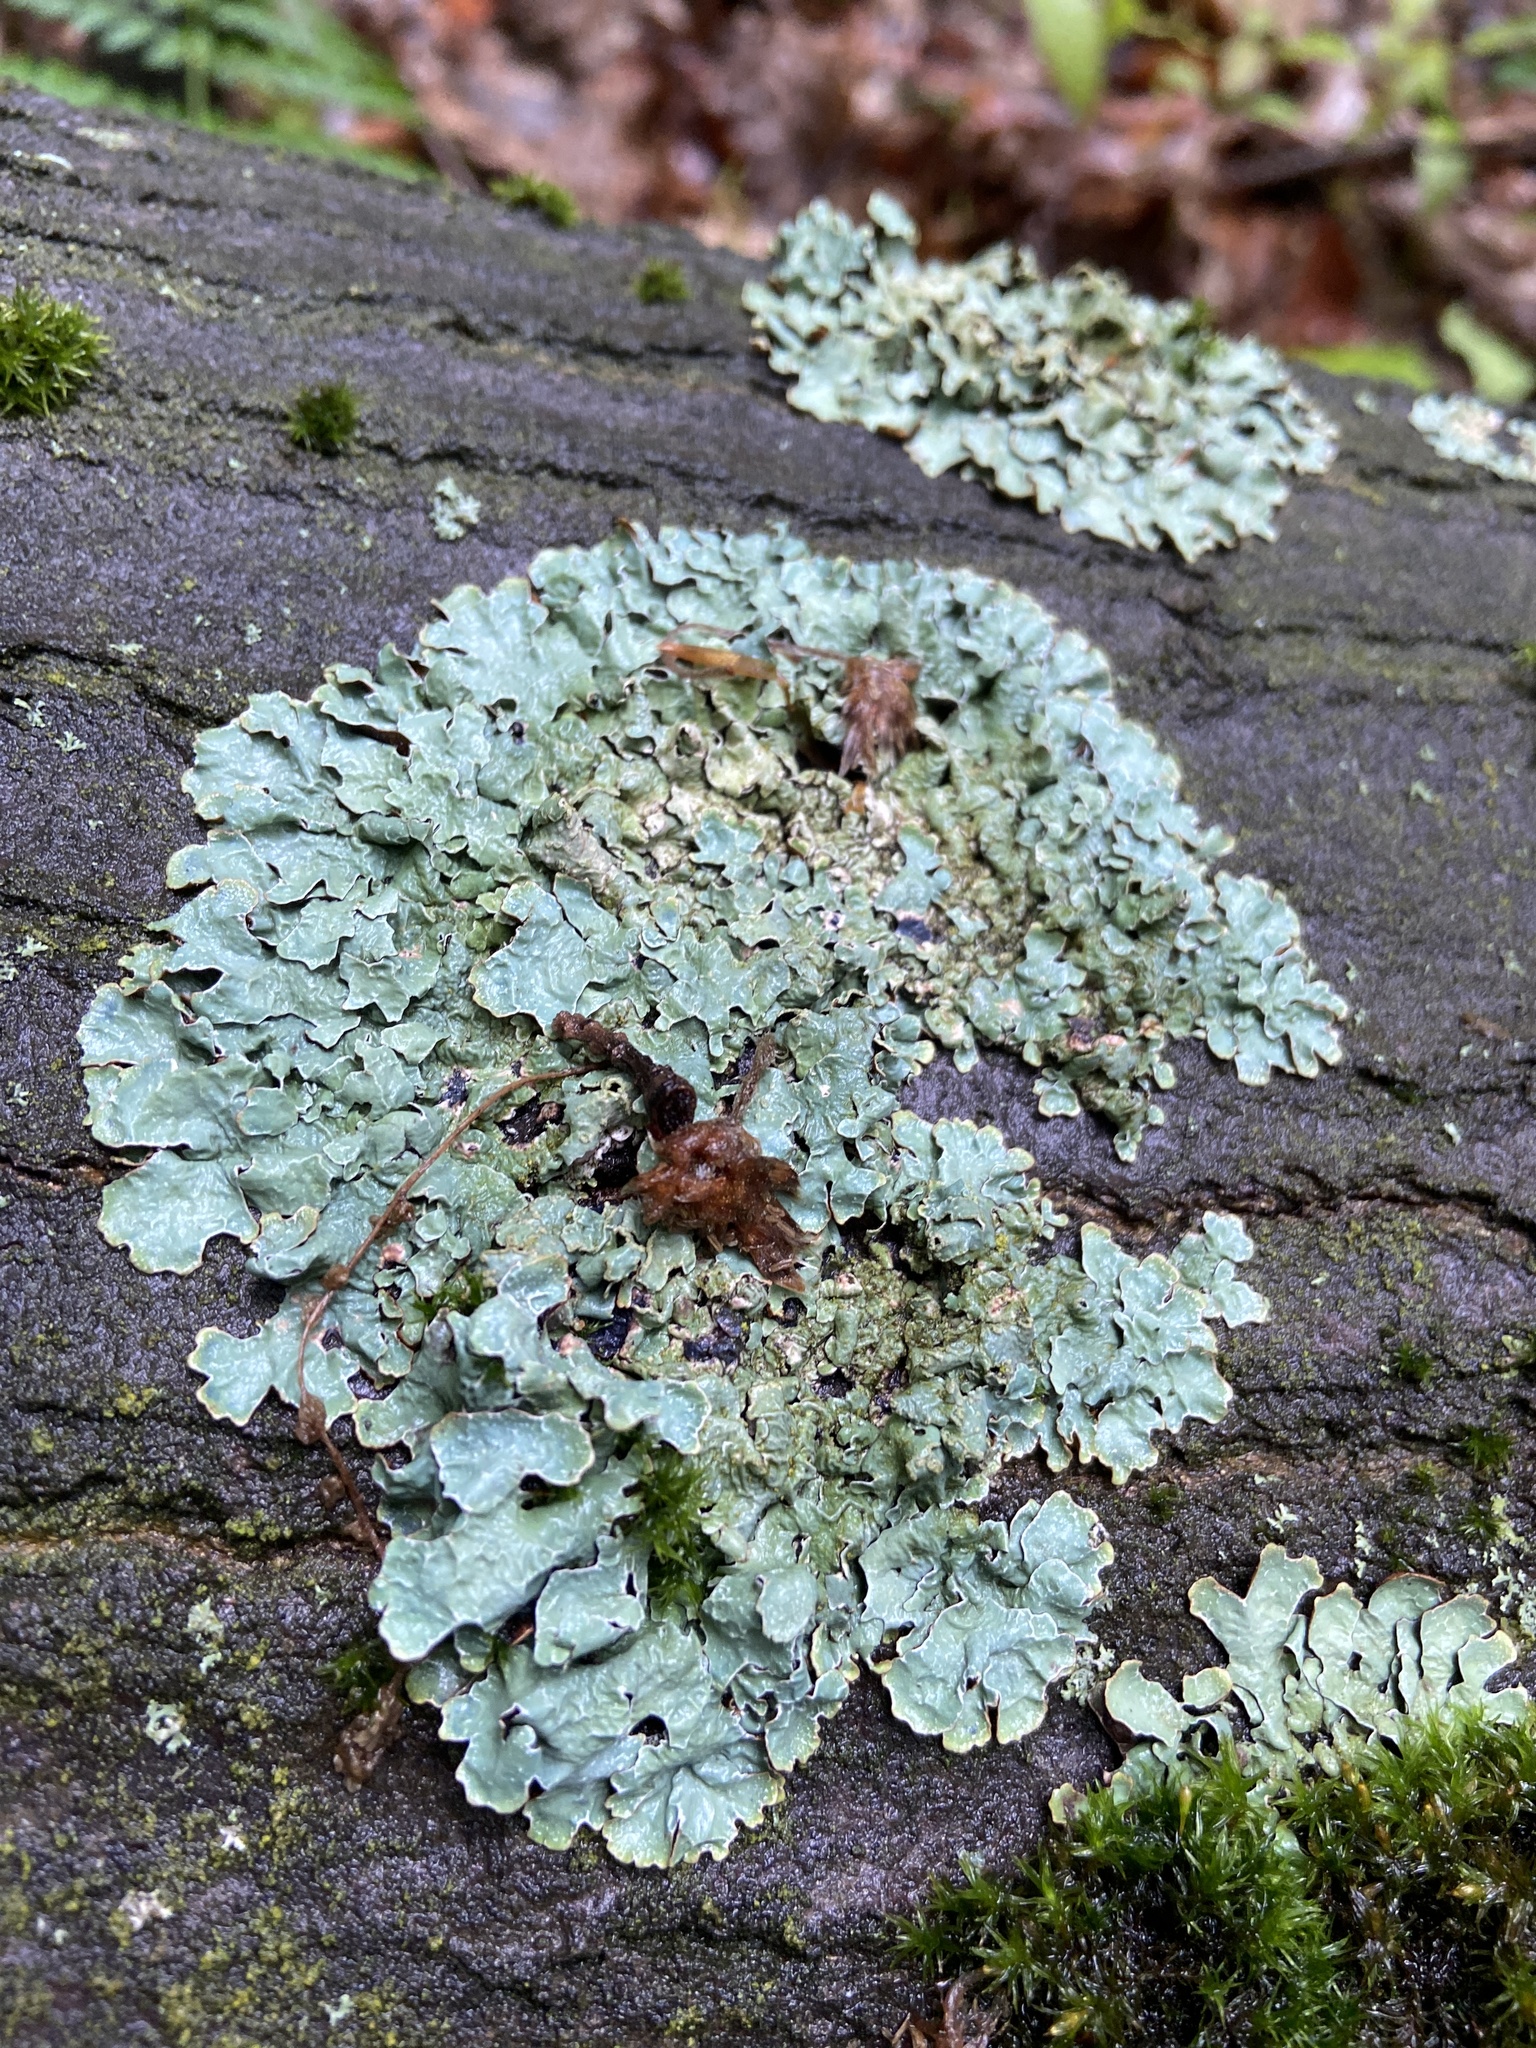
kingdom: Fungi
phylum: Ascomycota
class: Lecanoromycetes
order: Lecanorales
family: Parmeliaceae
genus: Parmelia
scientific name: Parmelia sulcata
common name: Netted shield lichen
